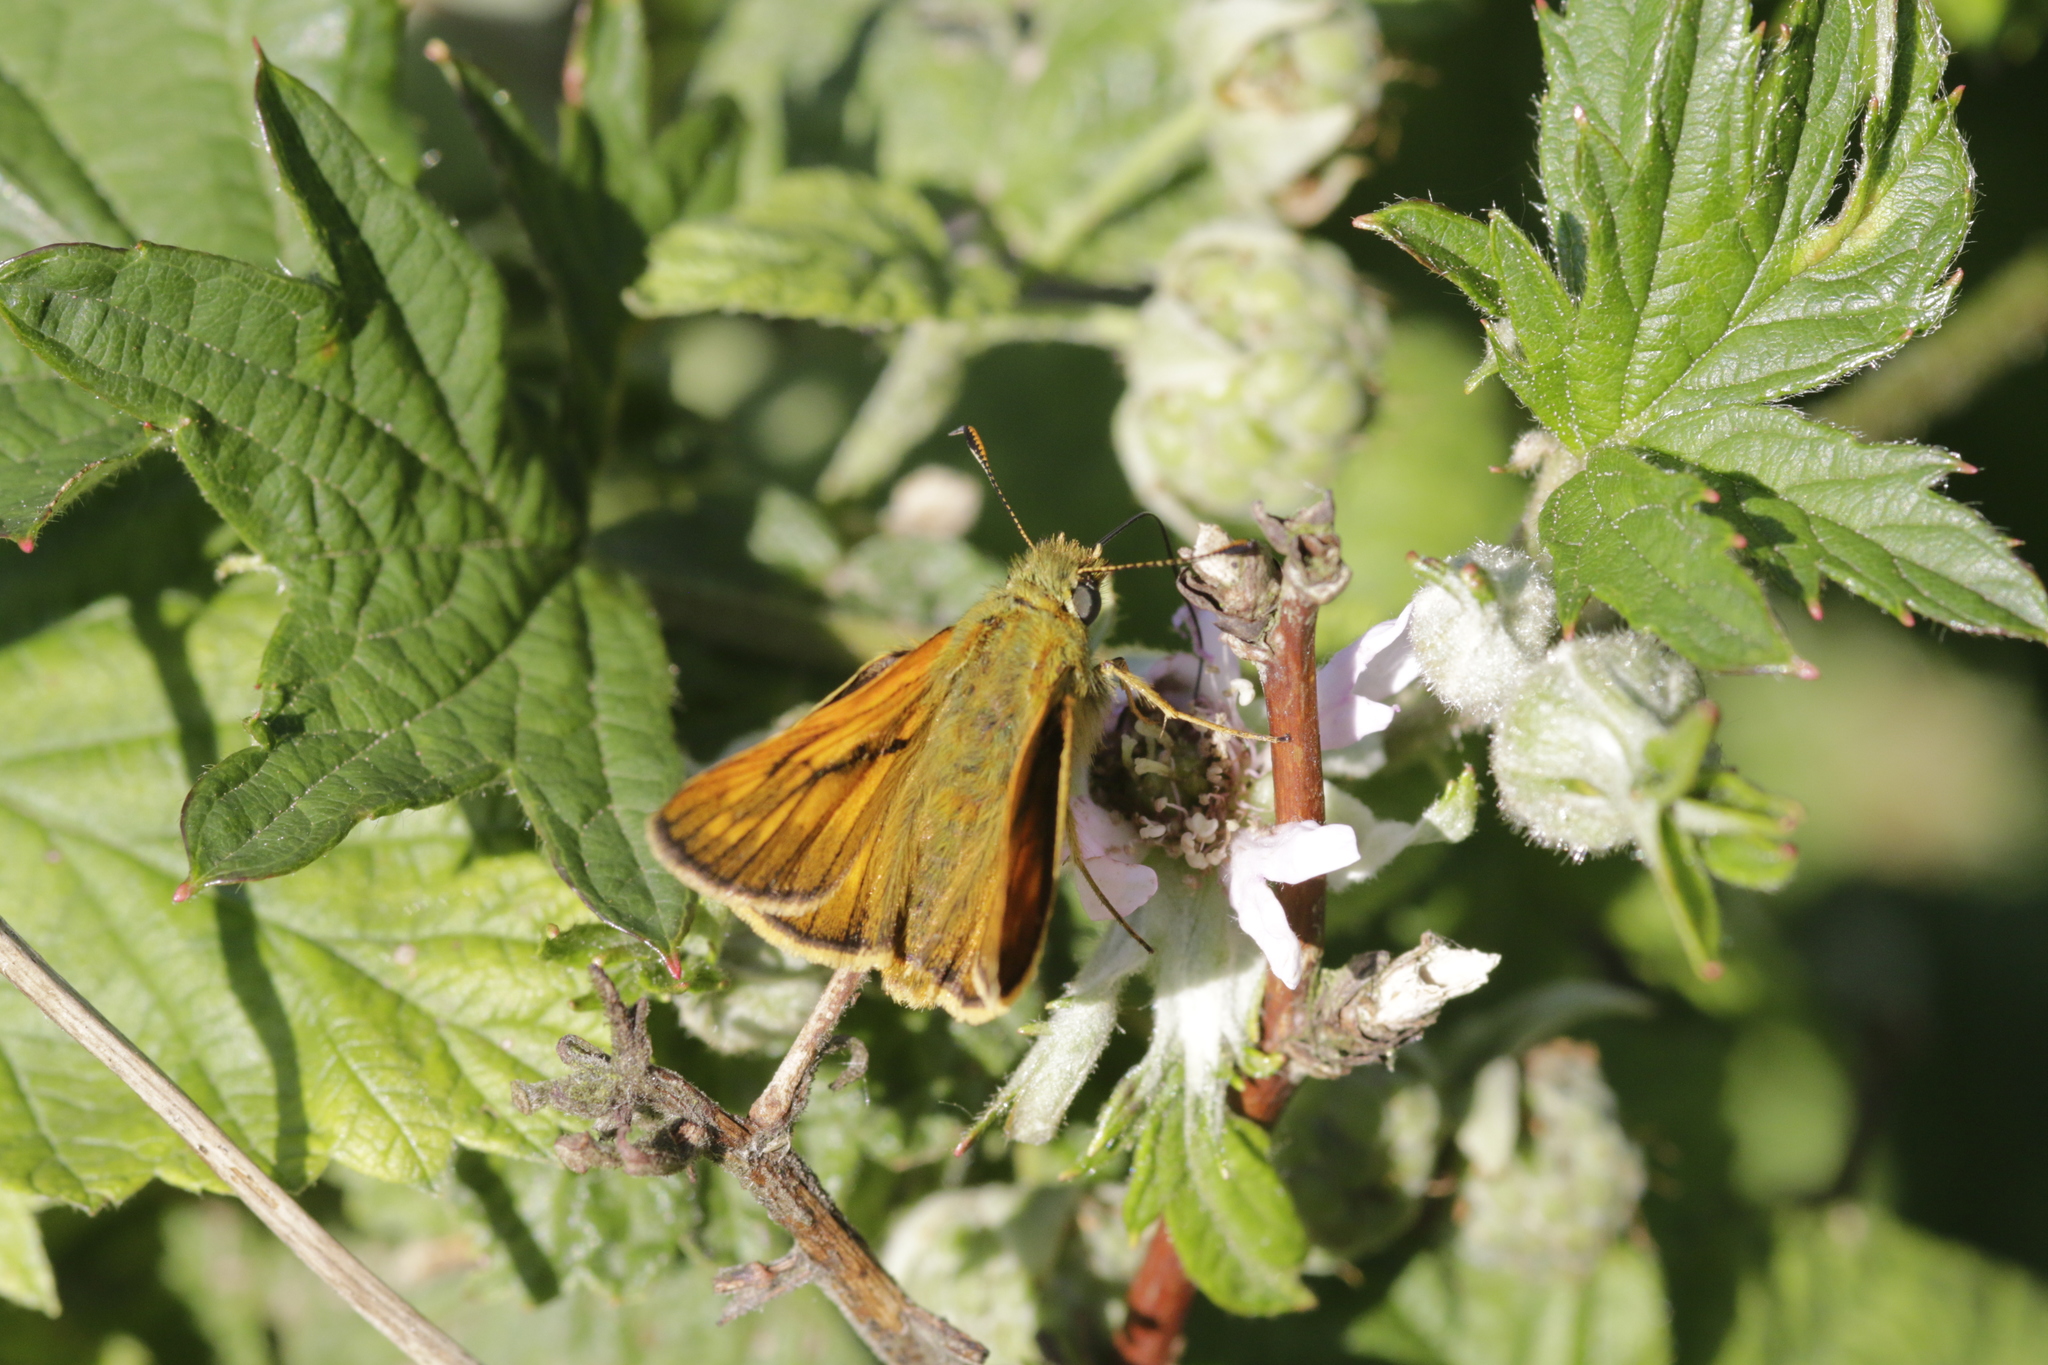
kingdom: Animalia
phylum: Arthropoda
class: Insecta
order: Lepidoptera
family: Hesperiidae
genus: Ochlodes
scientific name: Ochlodes venata
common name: Large skipper
